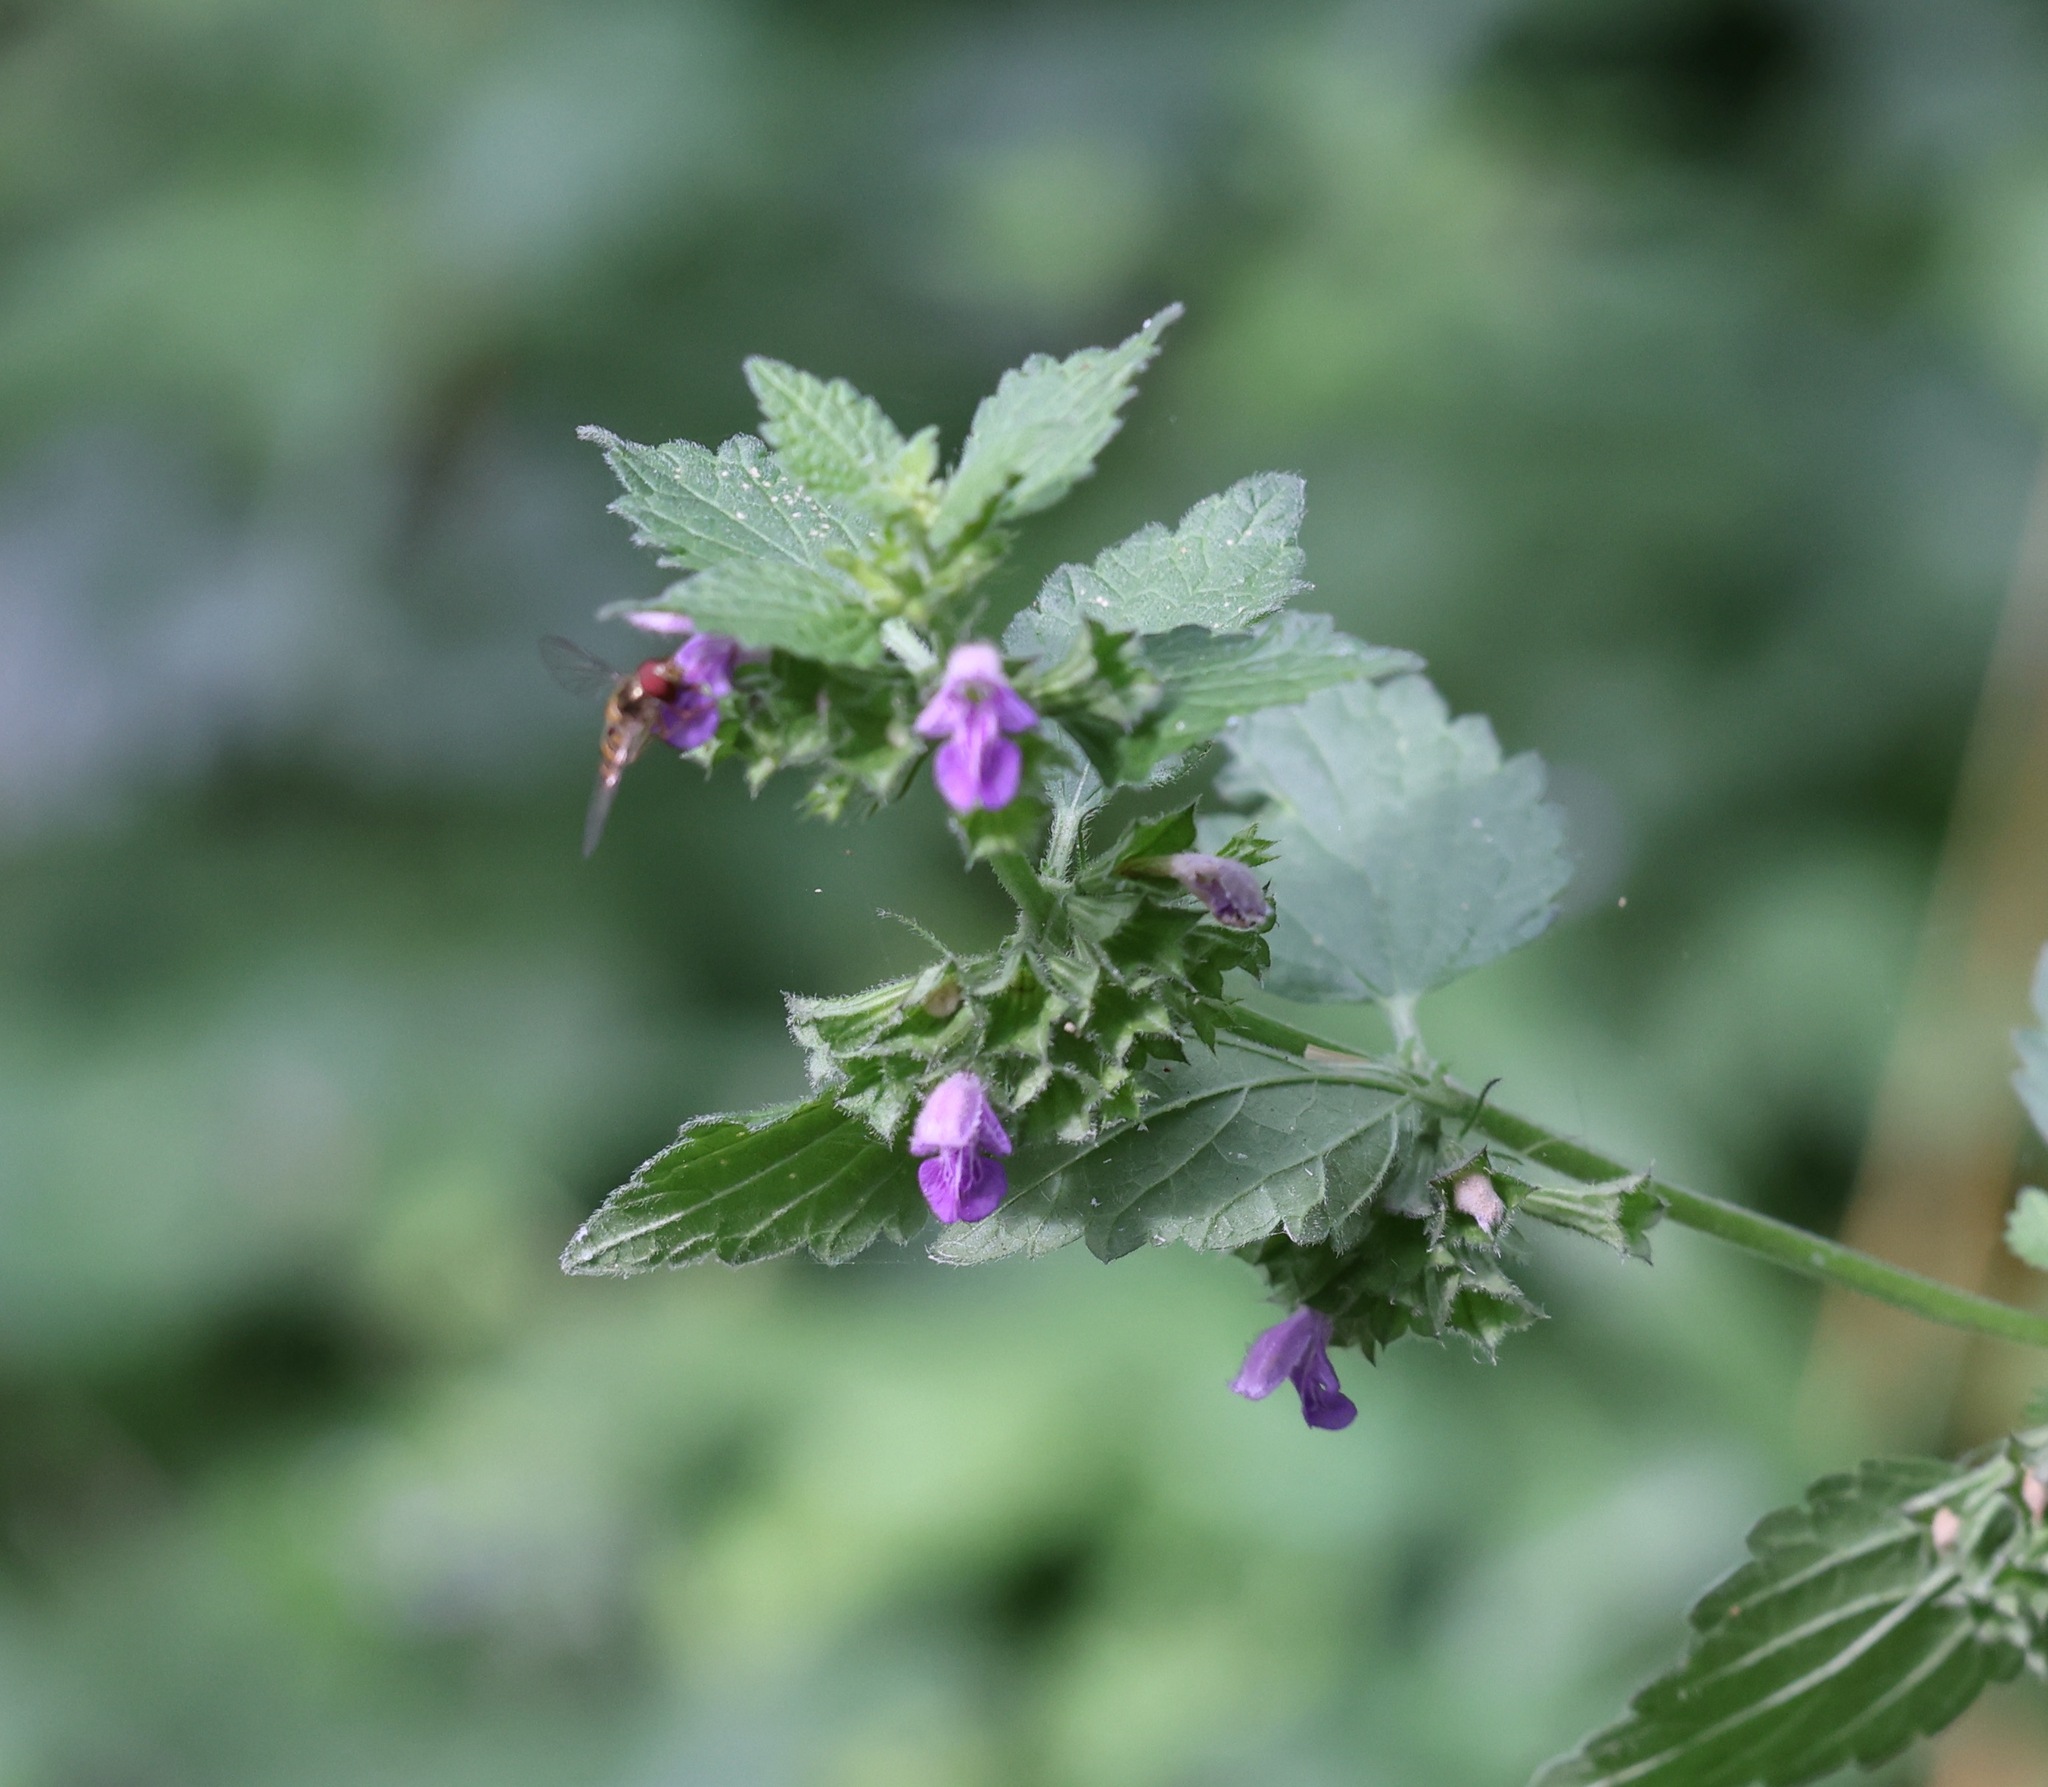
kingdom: Plantae
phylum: Tracheophyta
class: Magnoliopsida
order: Lamiales
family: Lamiaceae
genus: Ballota
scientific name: Ballota nigra
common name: Black horehound
